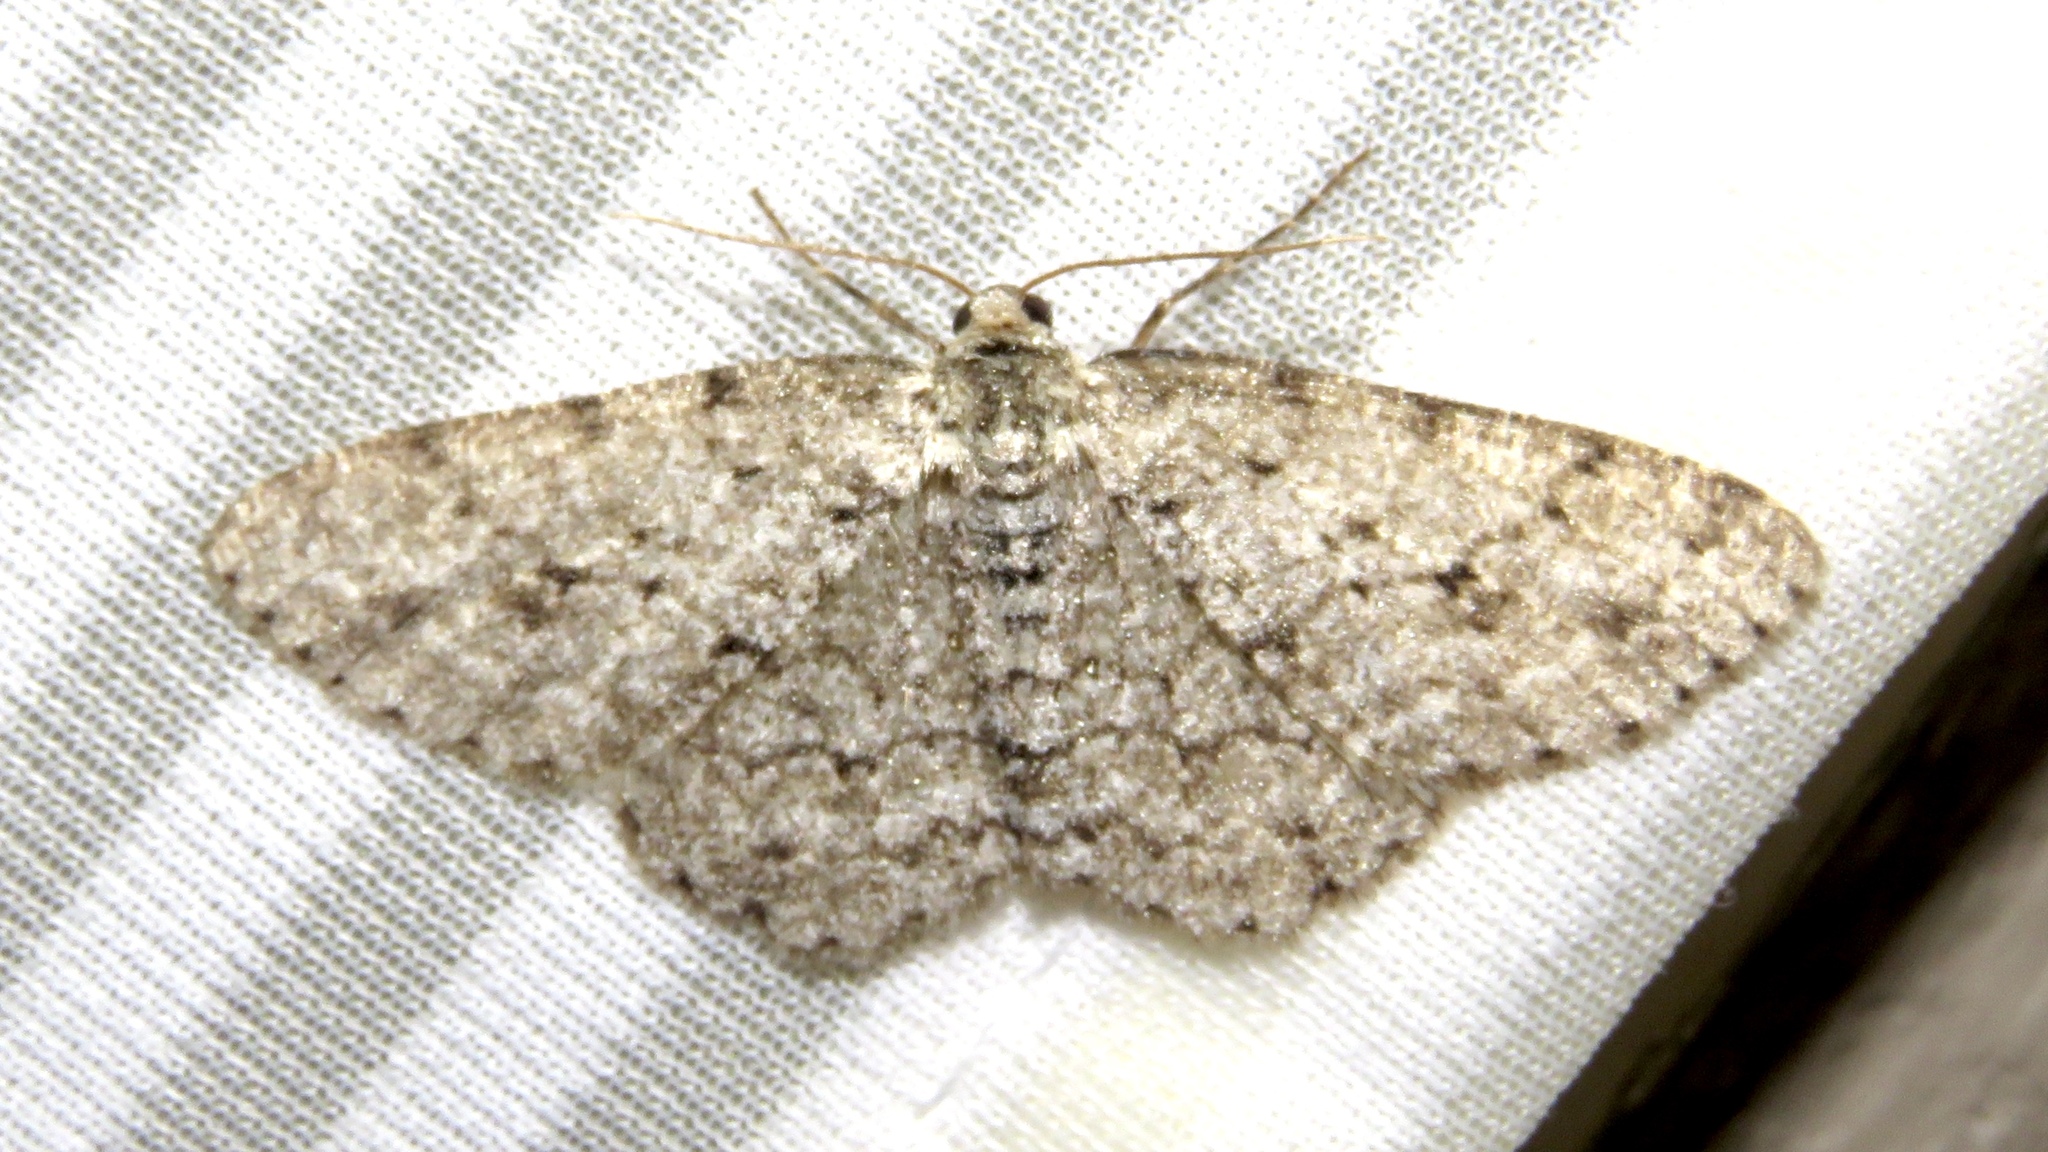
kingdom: Animalia
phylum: Arthropoda
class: Insecta
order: Lepidoptera
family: Geometridae
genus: Ectropis
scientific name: Ectropis crepuscularia
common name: Engrailed
